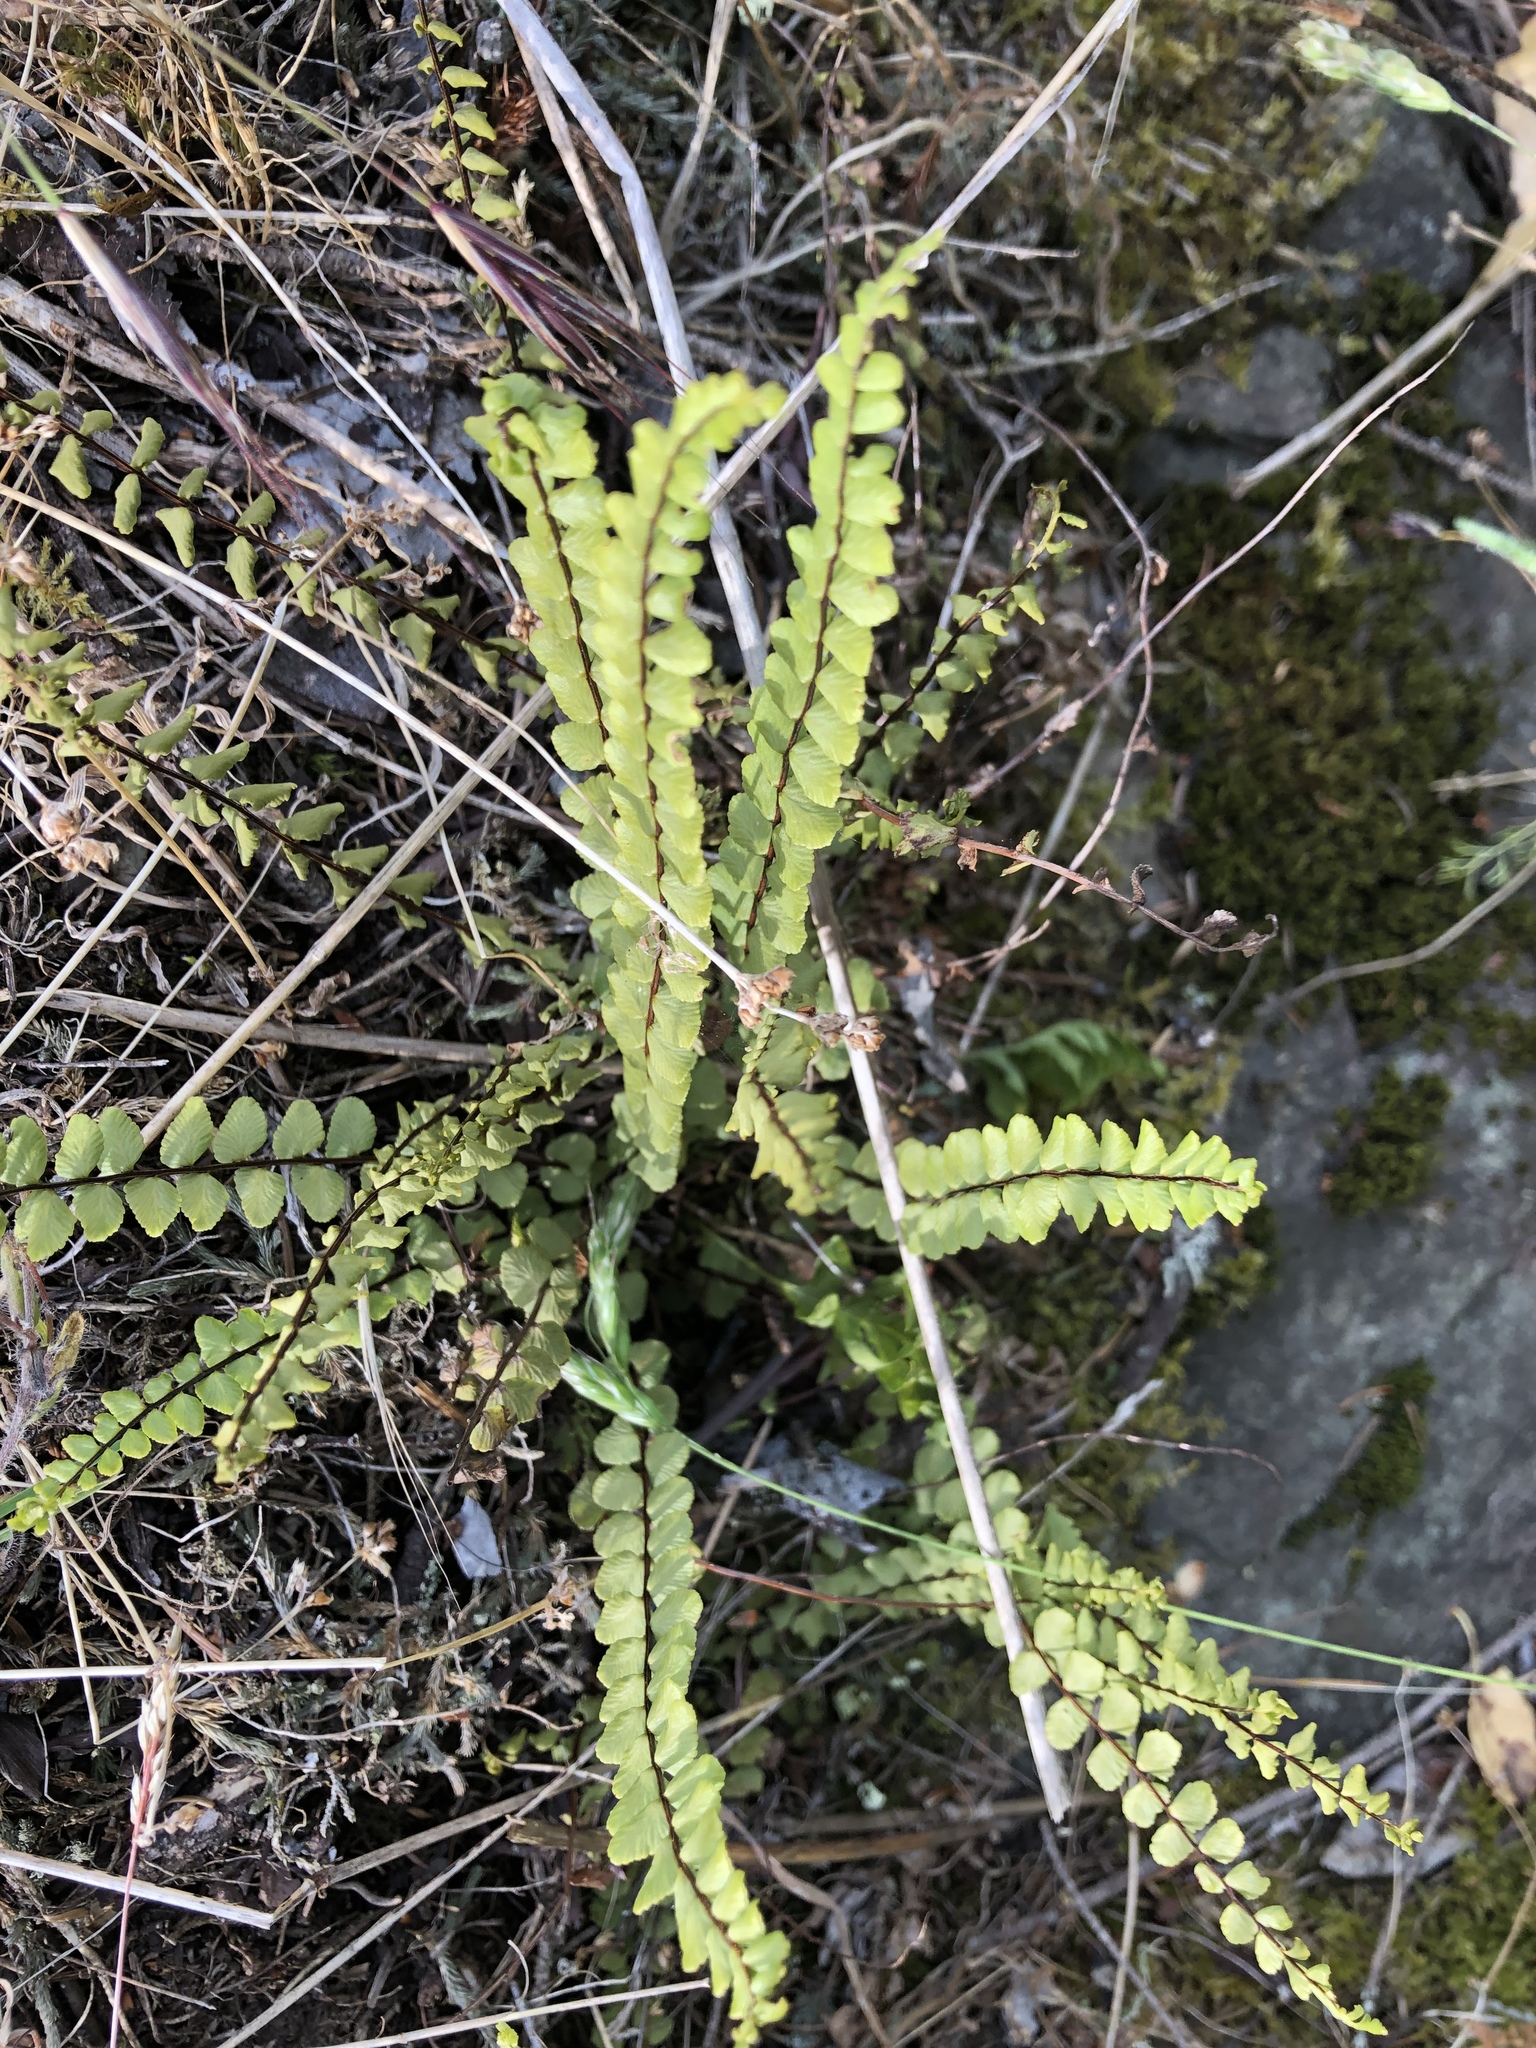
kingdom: Plantae
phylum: Tracheophyta
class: Polypodiopsida
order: Polypodiales
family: Aspleniaceae
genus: Asplenium
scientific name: Asplenium trichomanes
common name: Maidenhair spleenwort
